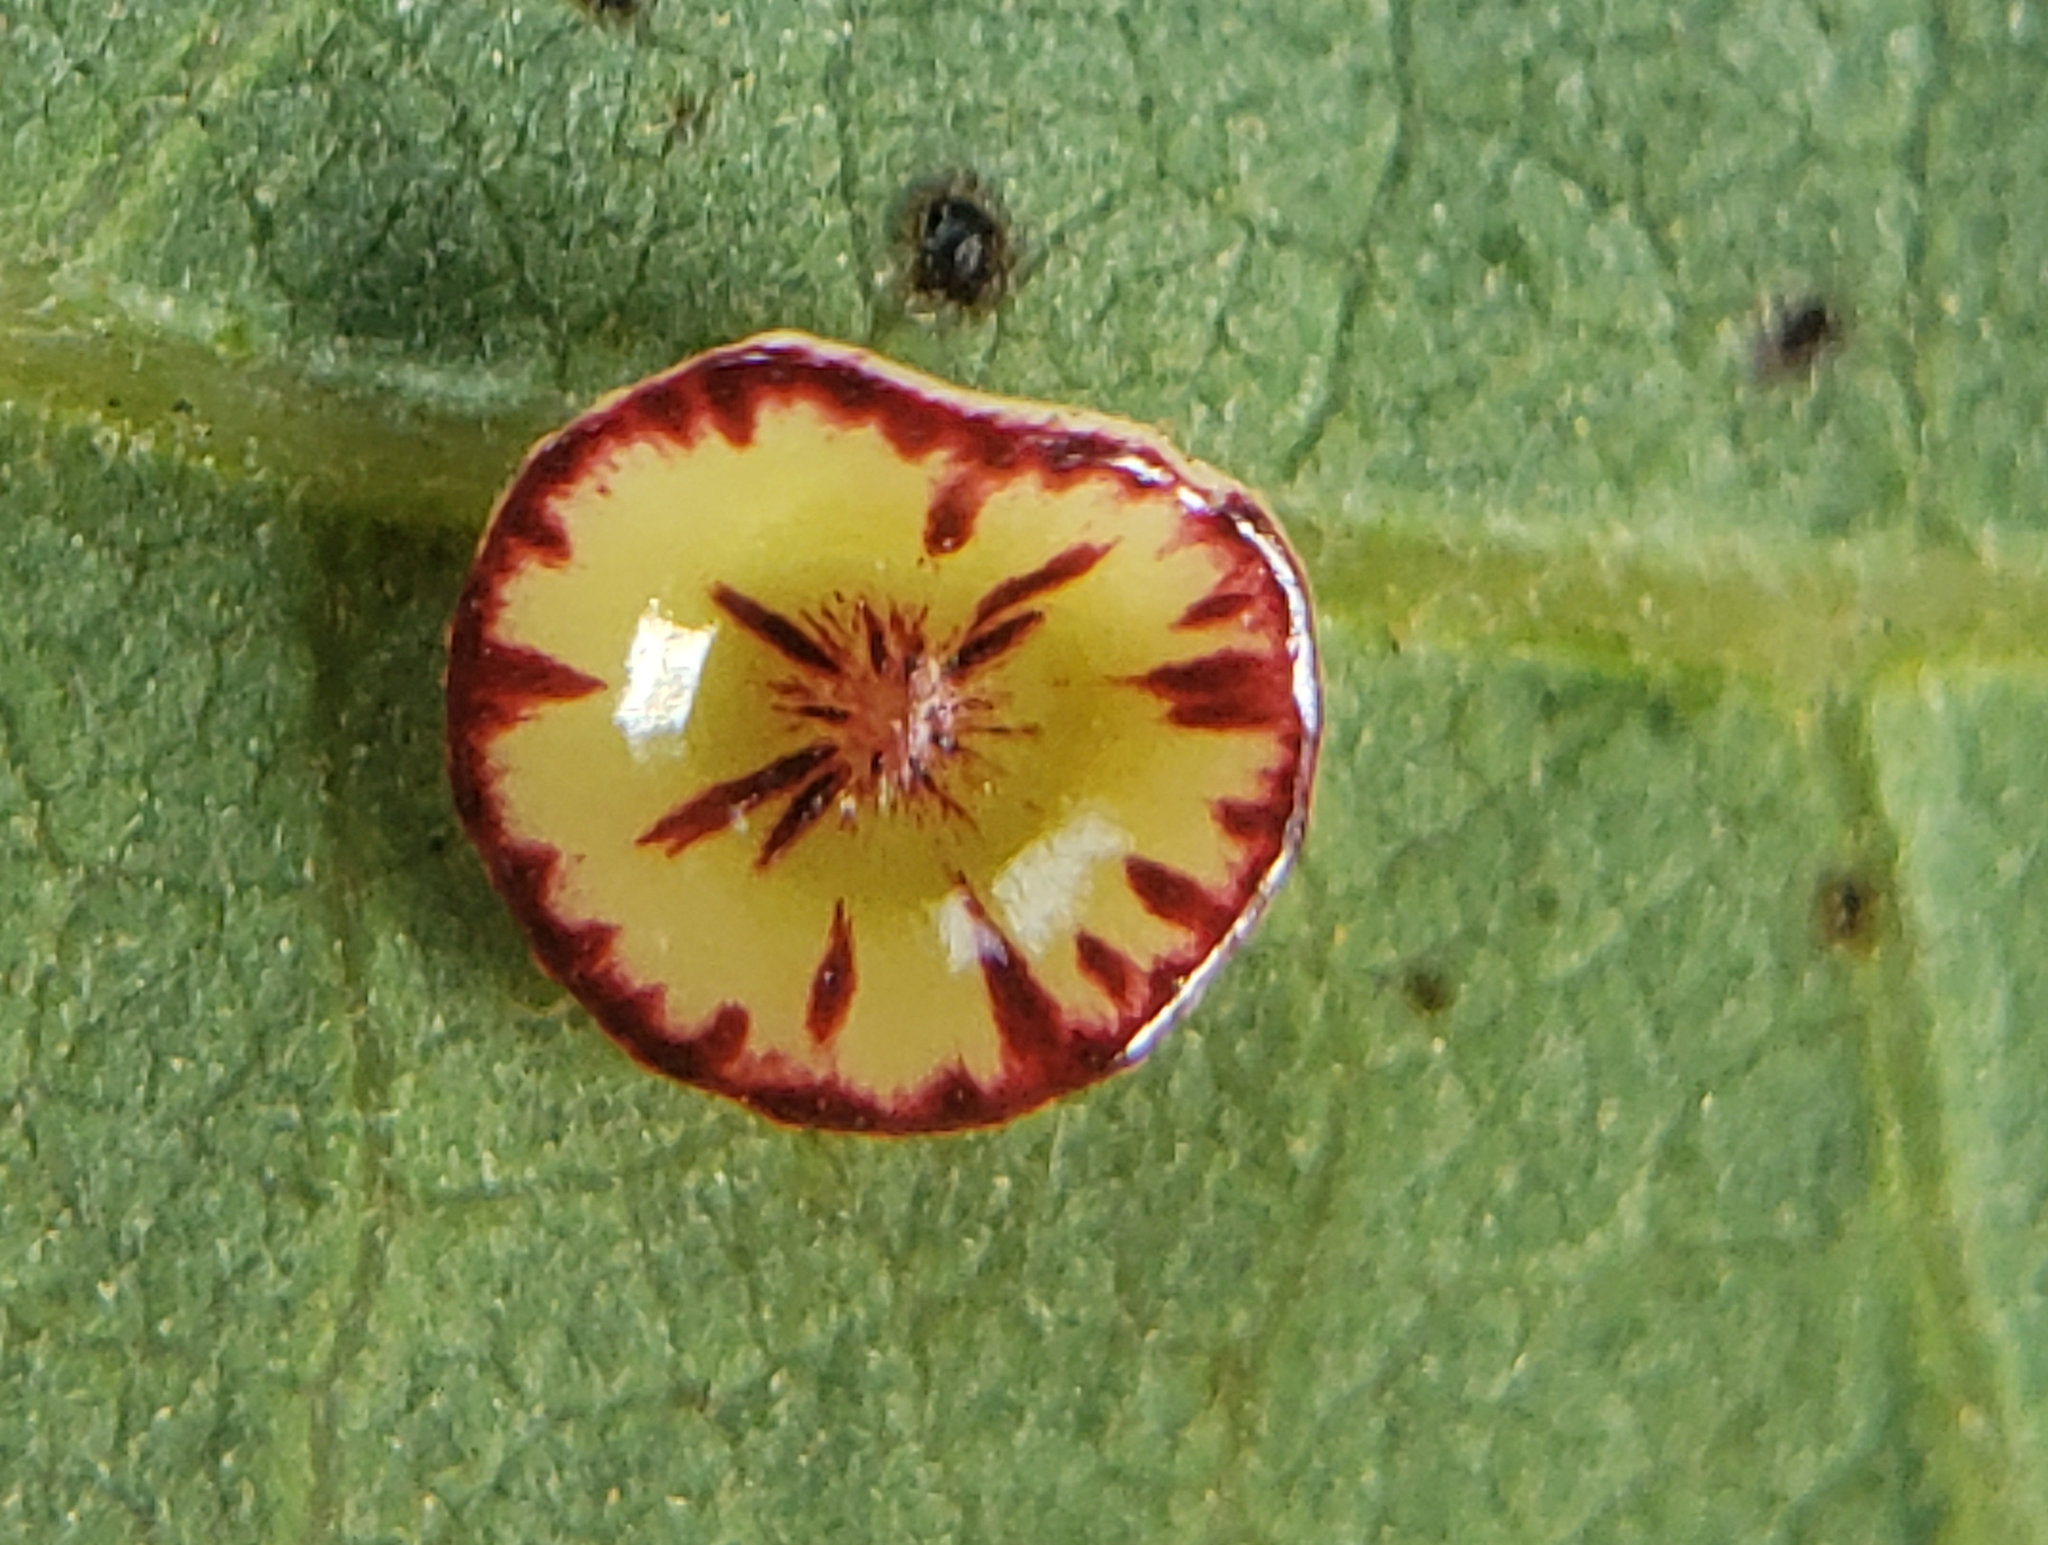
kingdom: Animalia
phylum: Arthropoda
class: Insecta
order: Hymenoptera
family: Cynipidae
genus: Andricus
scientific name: Andricus
